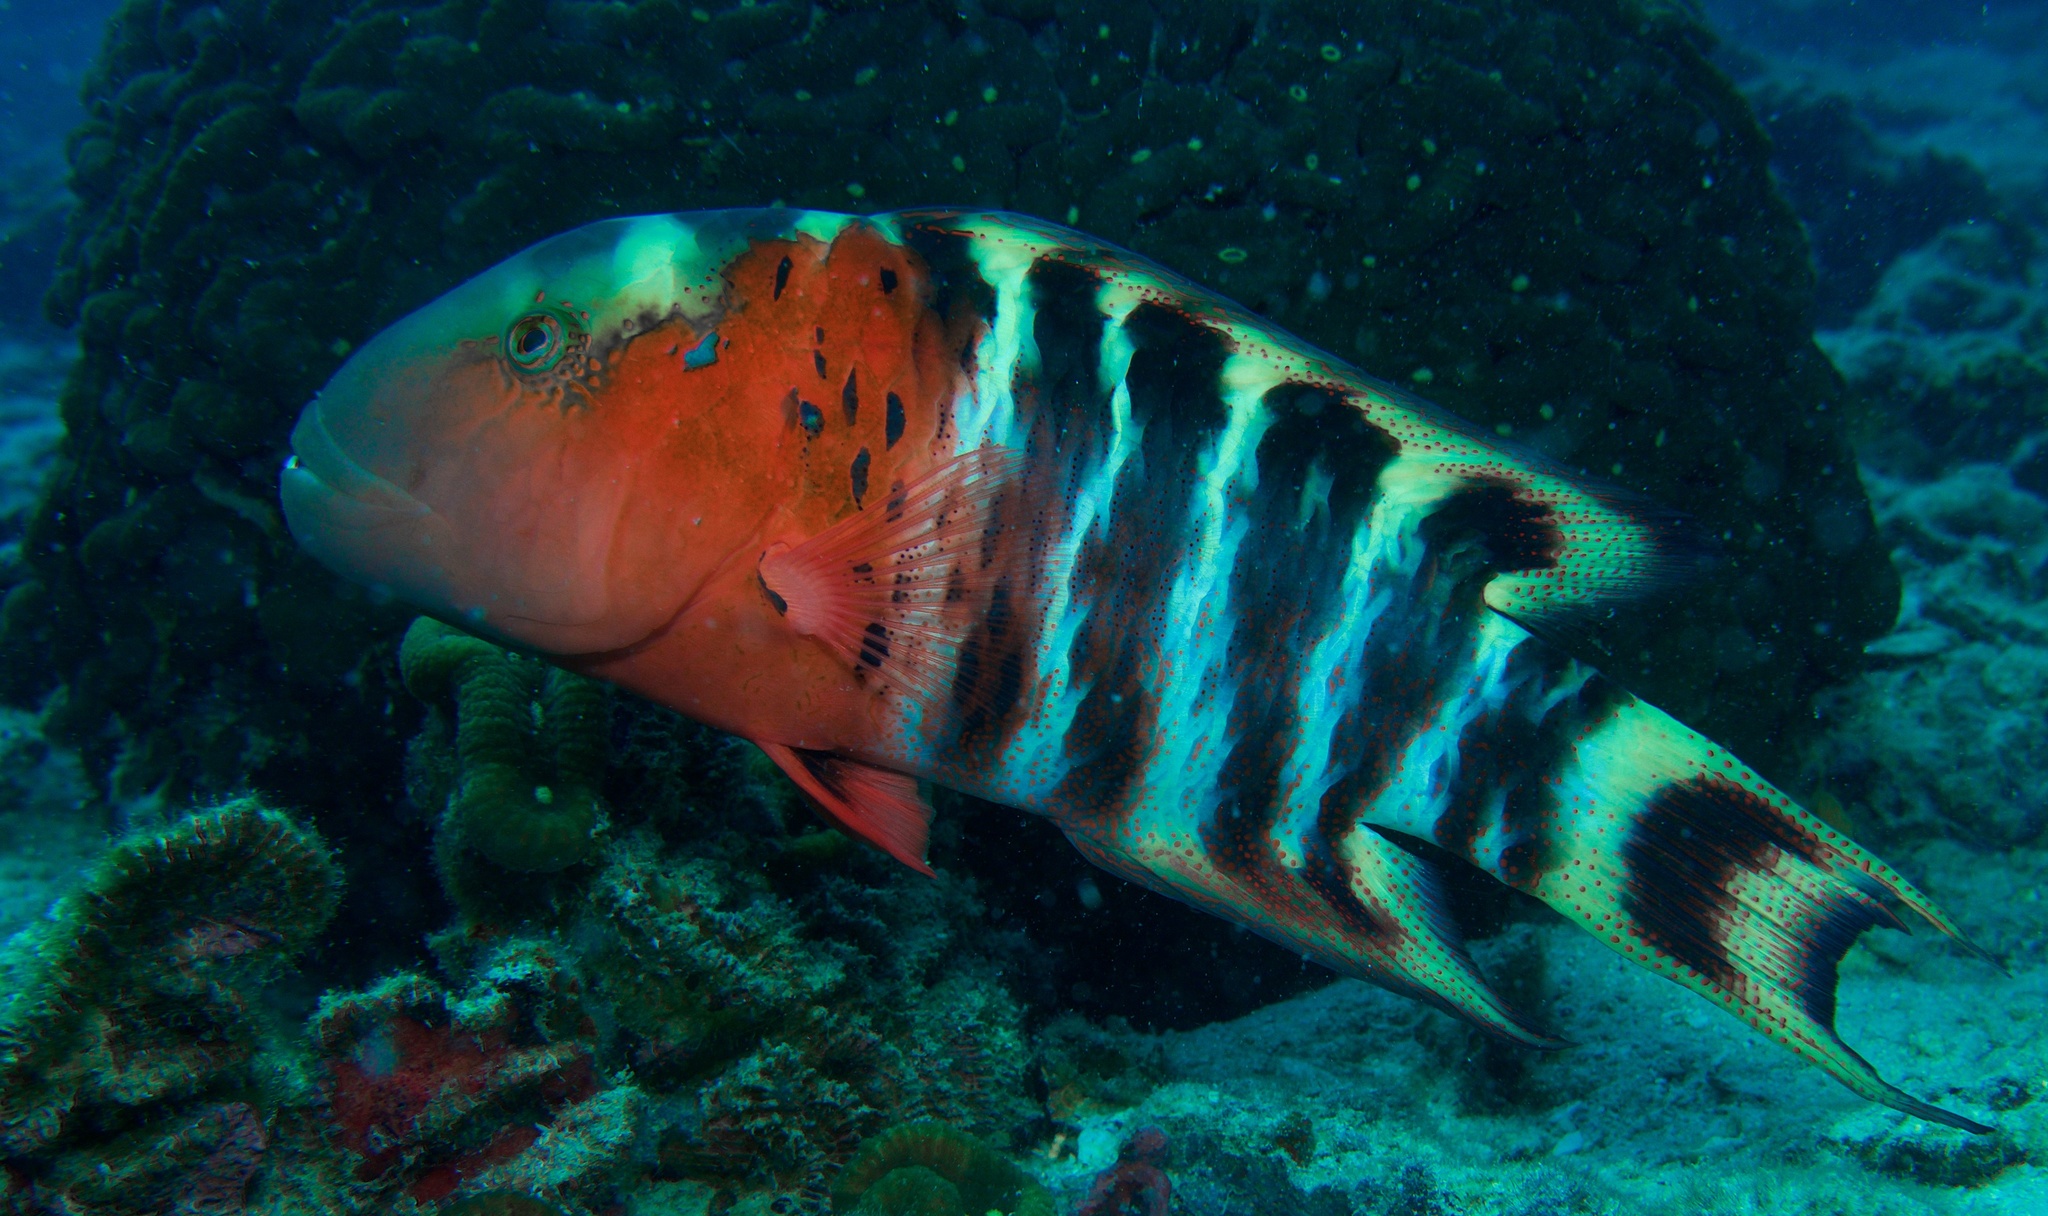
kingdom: Animalia
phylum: Chordata
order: Perciformes
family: Labridae
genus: Cheilinus
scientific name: Cheilinus fasciatus
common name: Red-breasted wrasse
